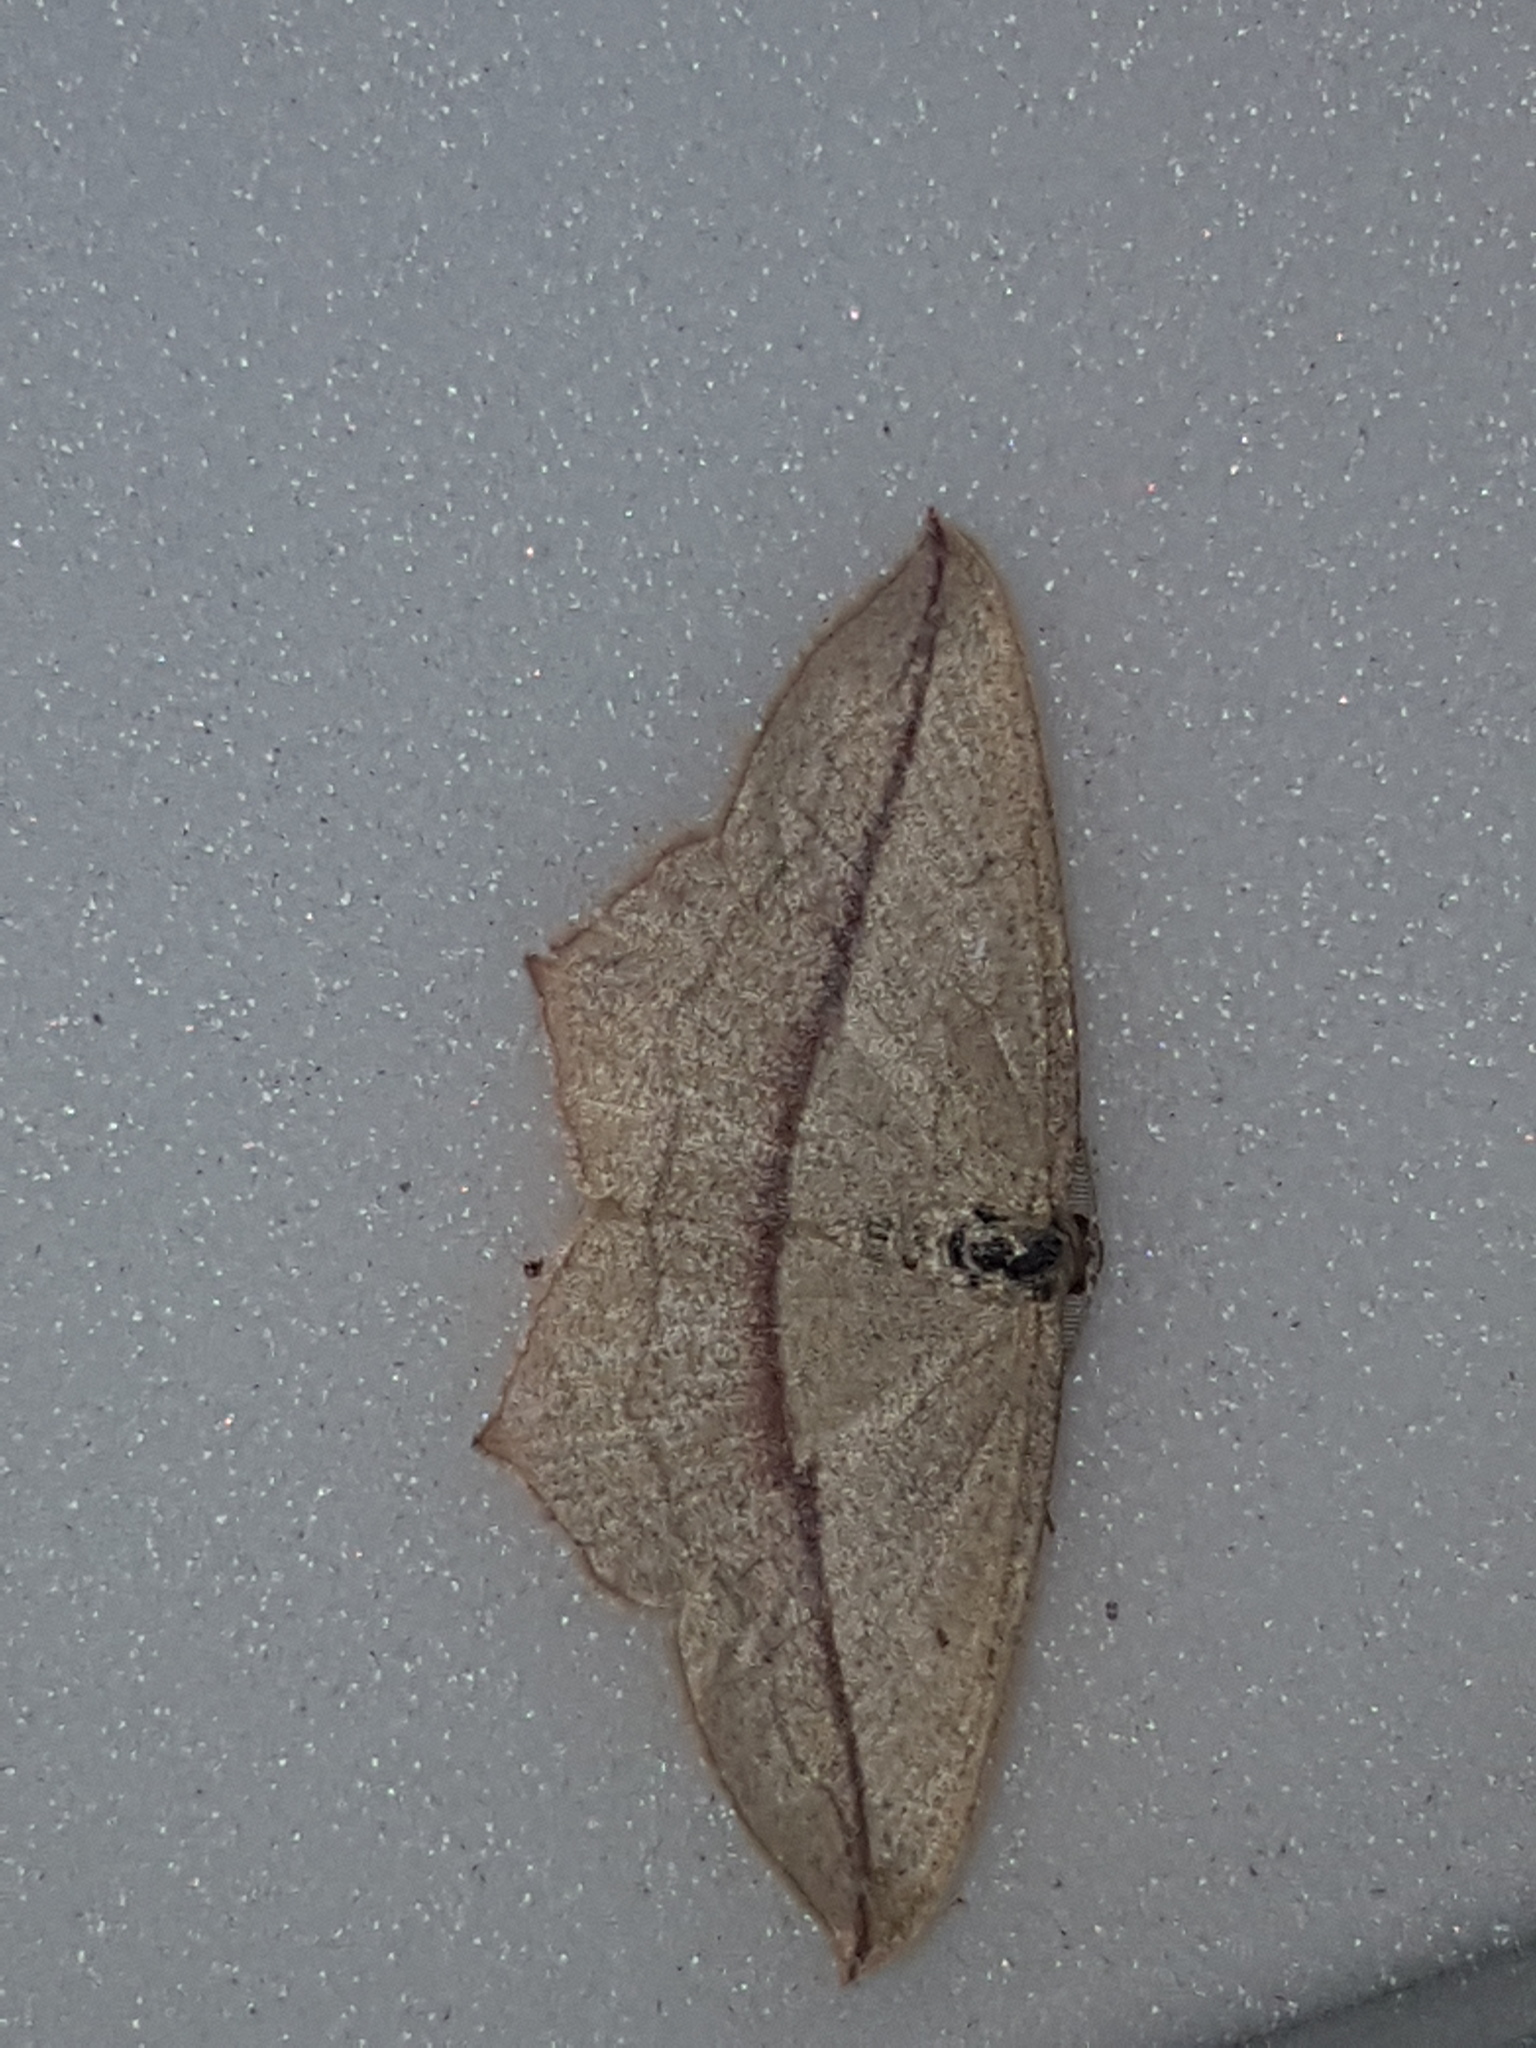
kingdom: Animalia
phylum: Arthropoda
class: Insecta
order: Lepidoptera
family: Geometridae
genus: Timandra
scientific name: Timandra comae
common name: Blood-vein
